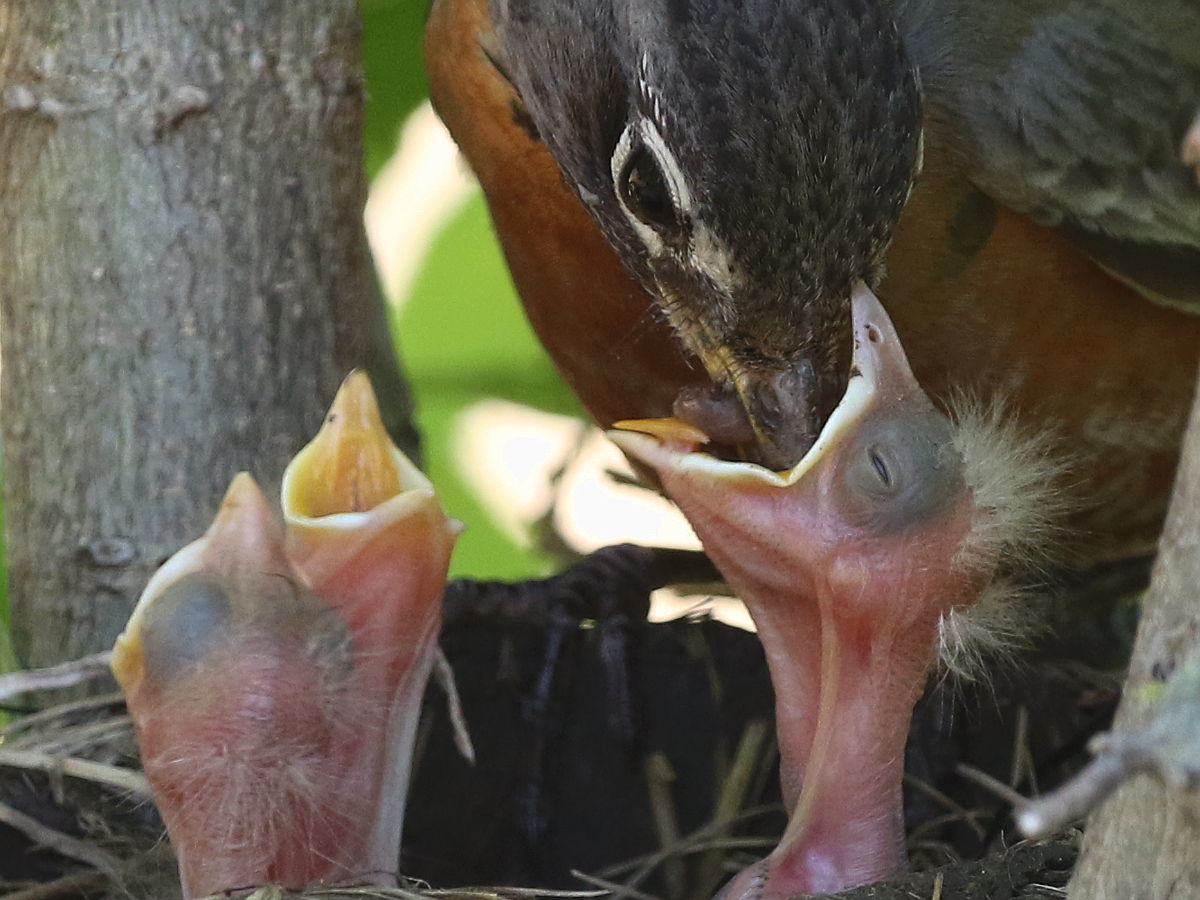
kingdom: Animalia
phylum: Chordata
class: Aves
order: Passeriformes
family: Turdidae
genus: Turdus
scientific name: Turdus migratorius
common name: American robin
